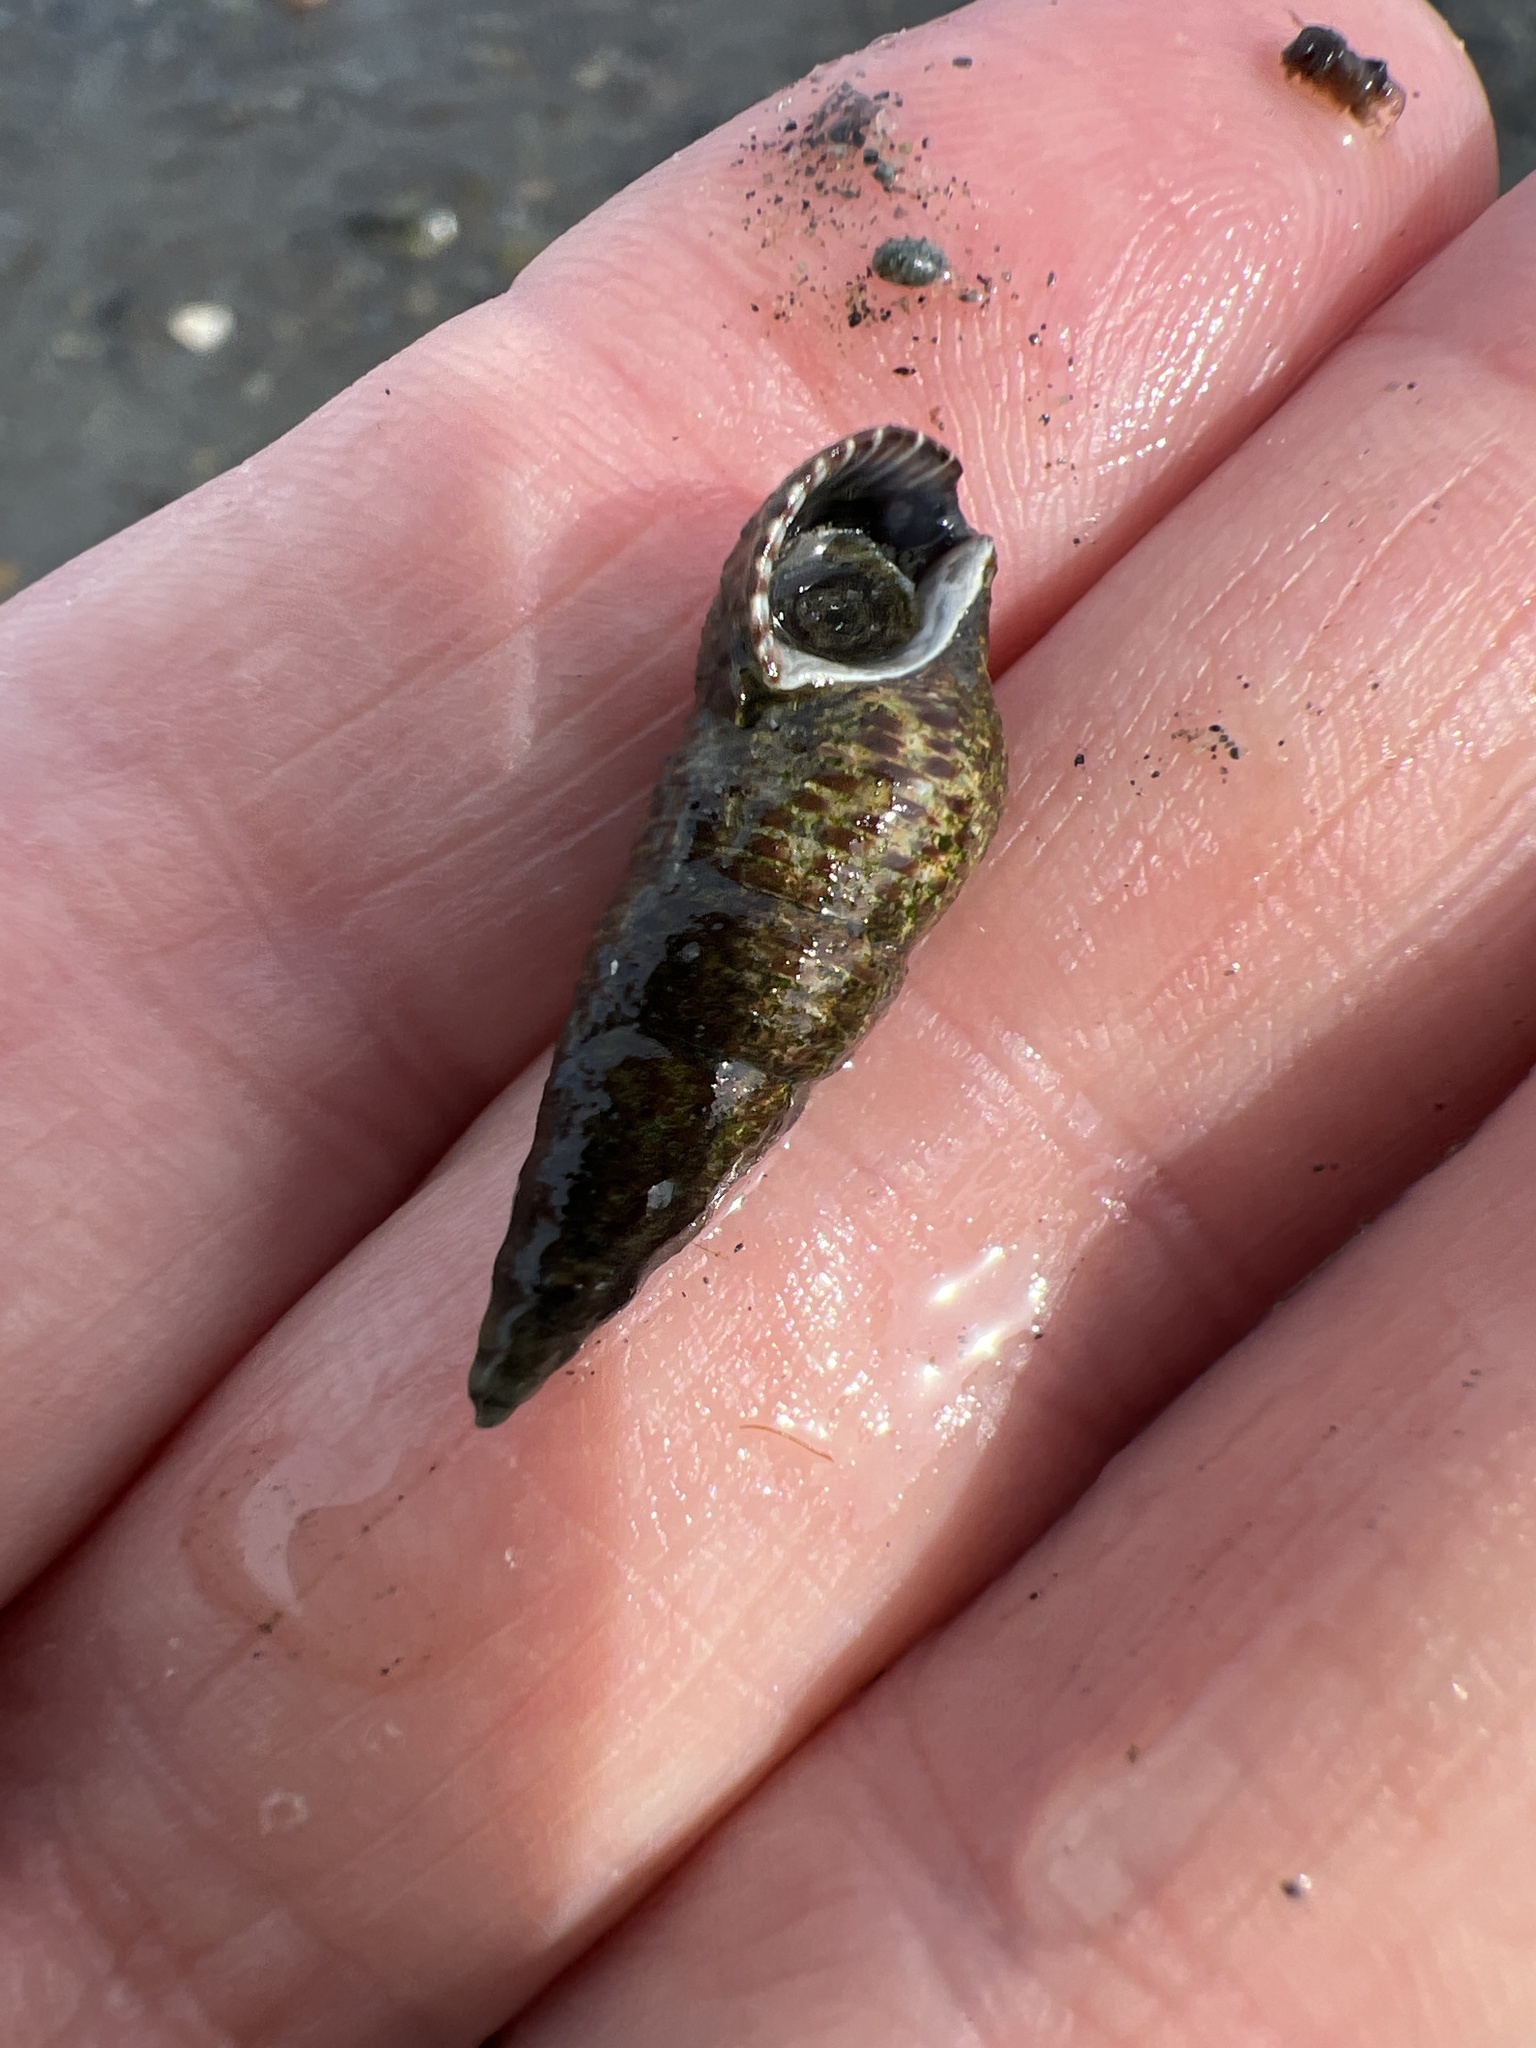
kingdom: Animalia
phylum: Mollusca
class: Gastropoda
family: Batillariidae
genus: Batillaria
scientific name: Batillaria attramentaria
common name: Japanese false cerith
